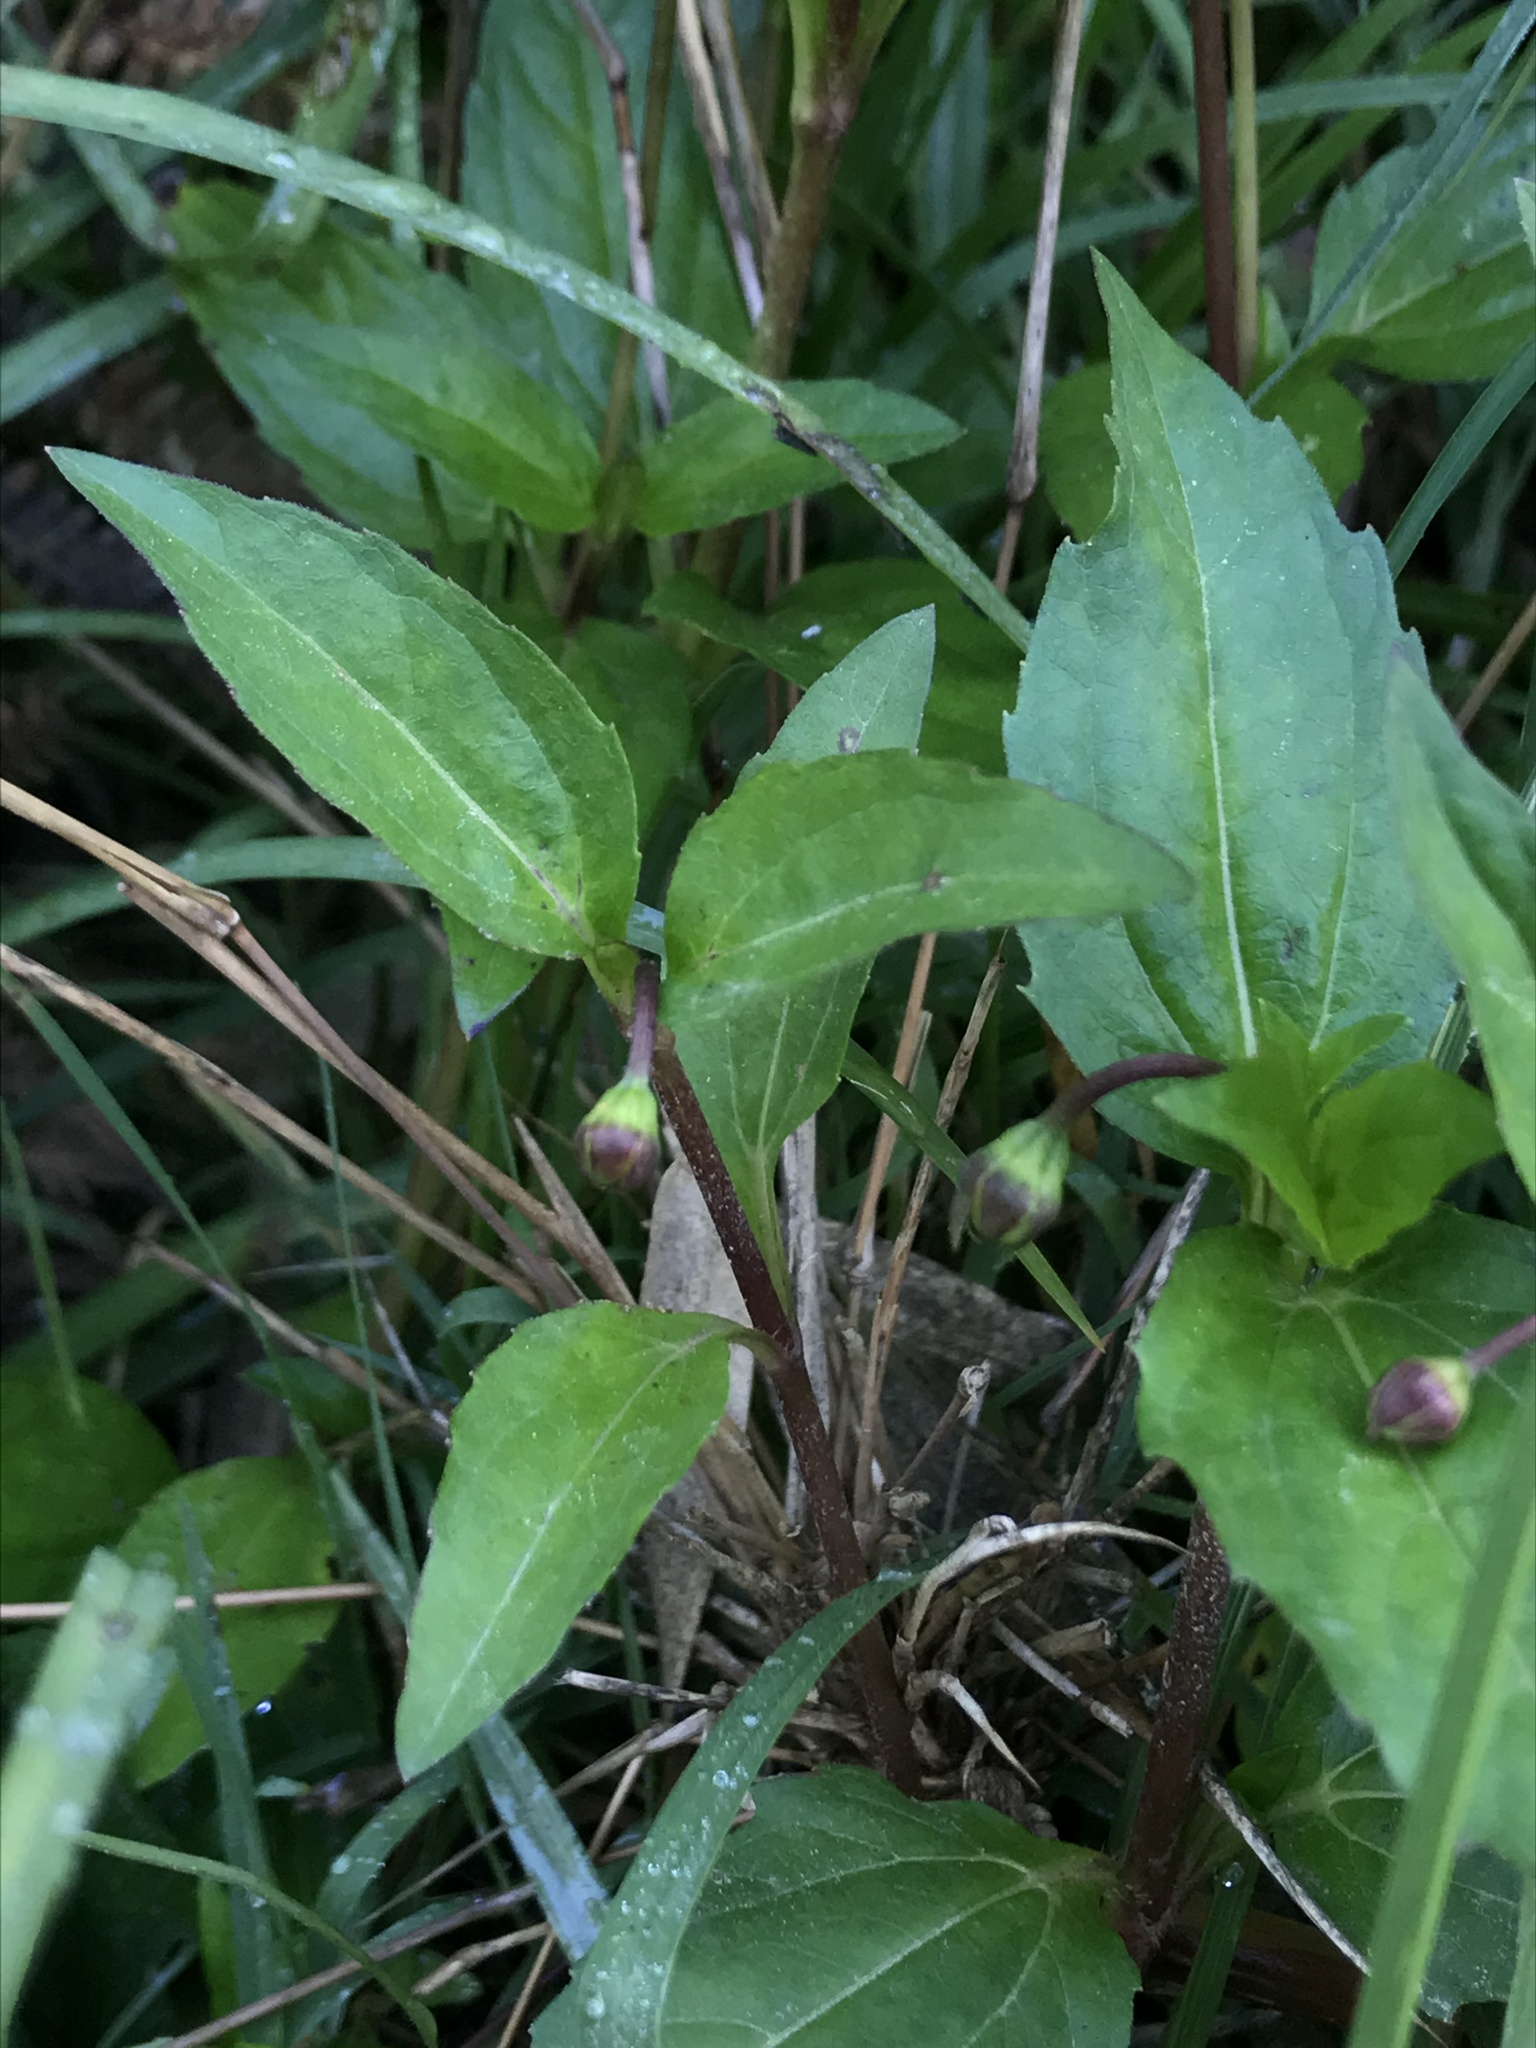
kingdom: Plantae
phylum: Tracheophyta
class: Magnoliopsida
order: Asterales
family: Asteraceae
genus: Acmella
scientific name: Acmella repens
